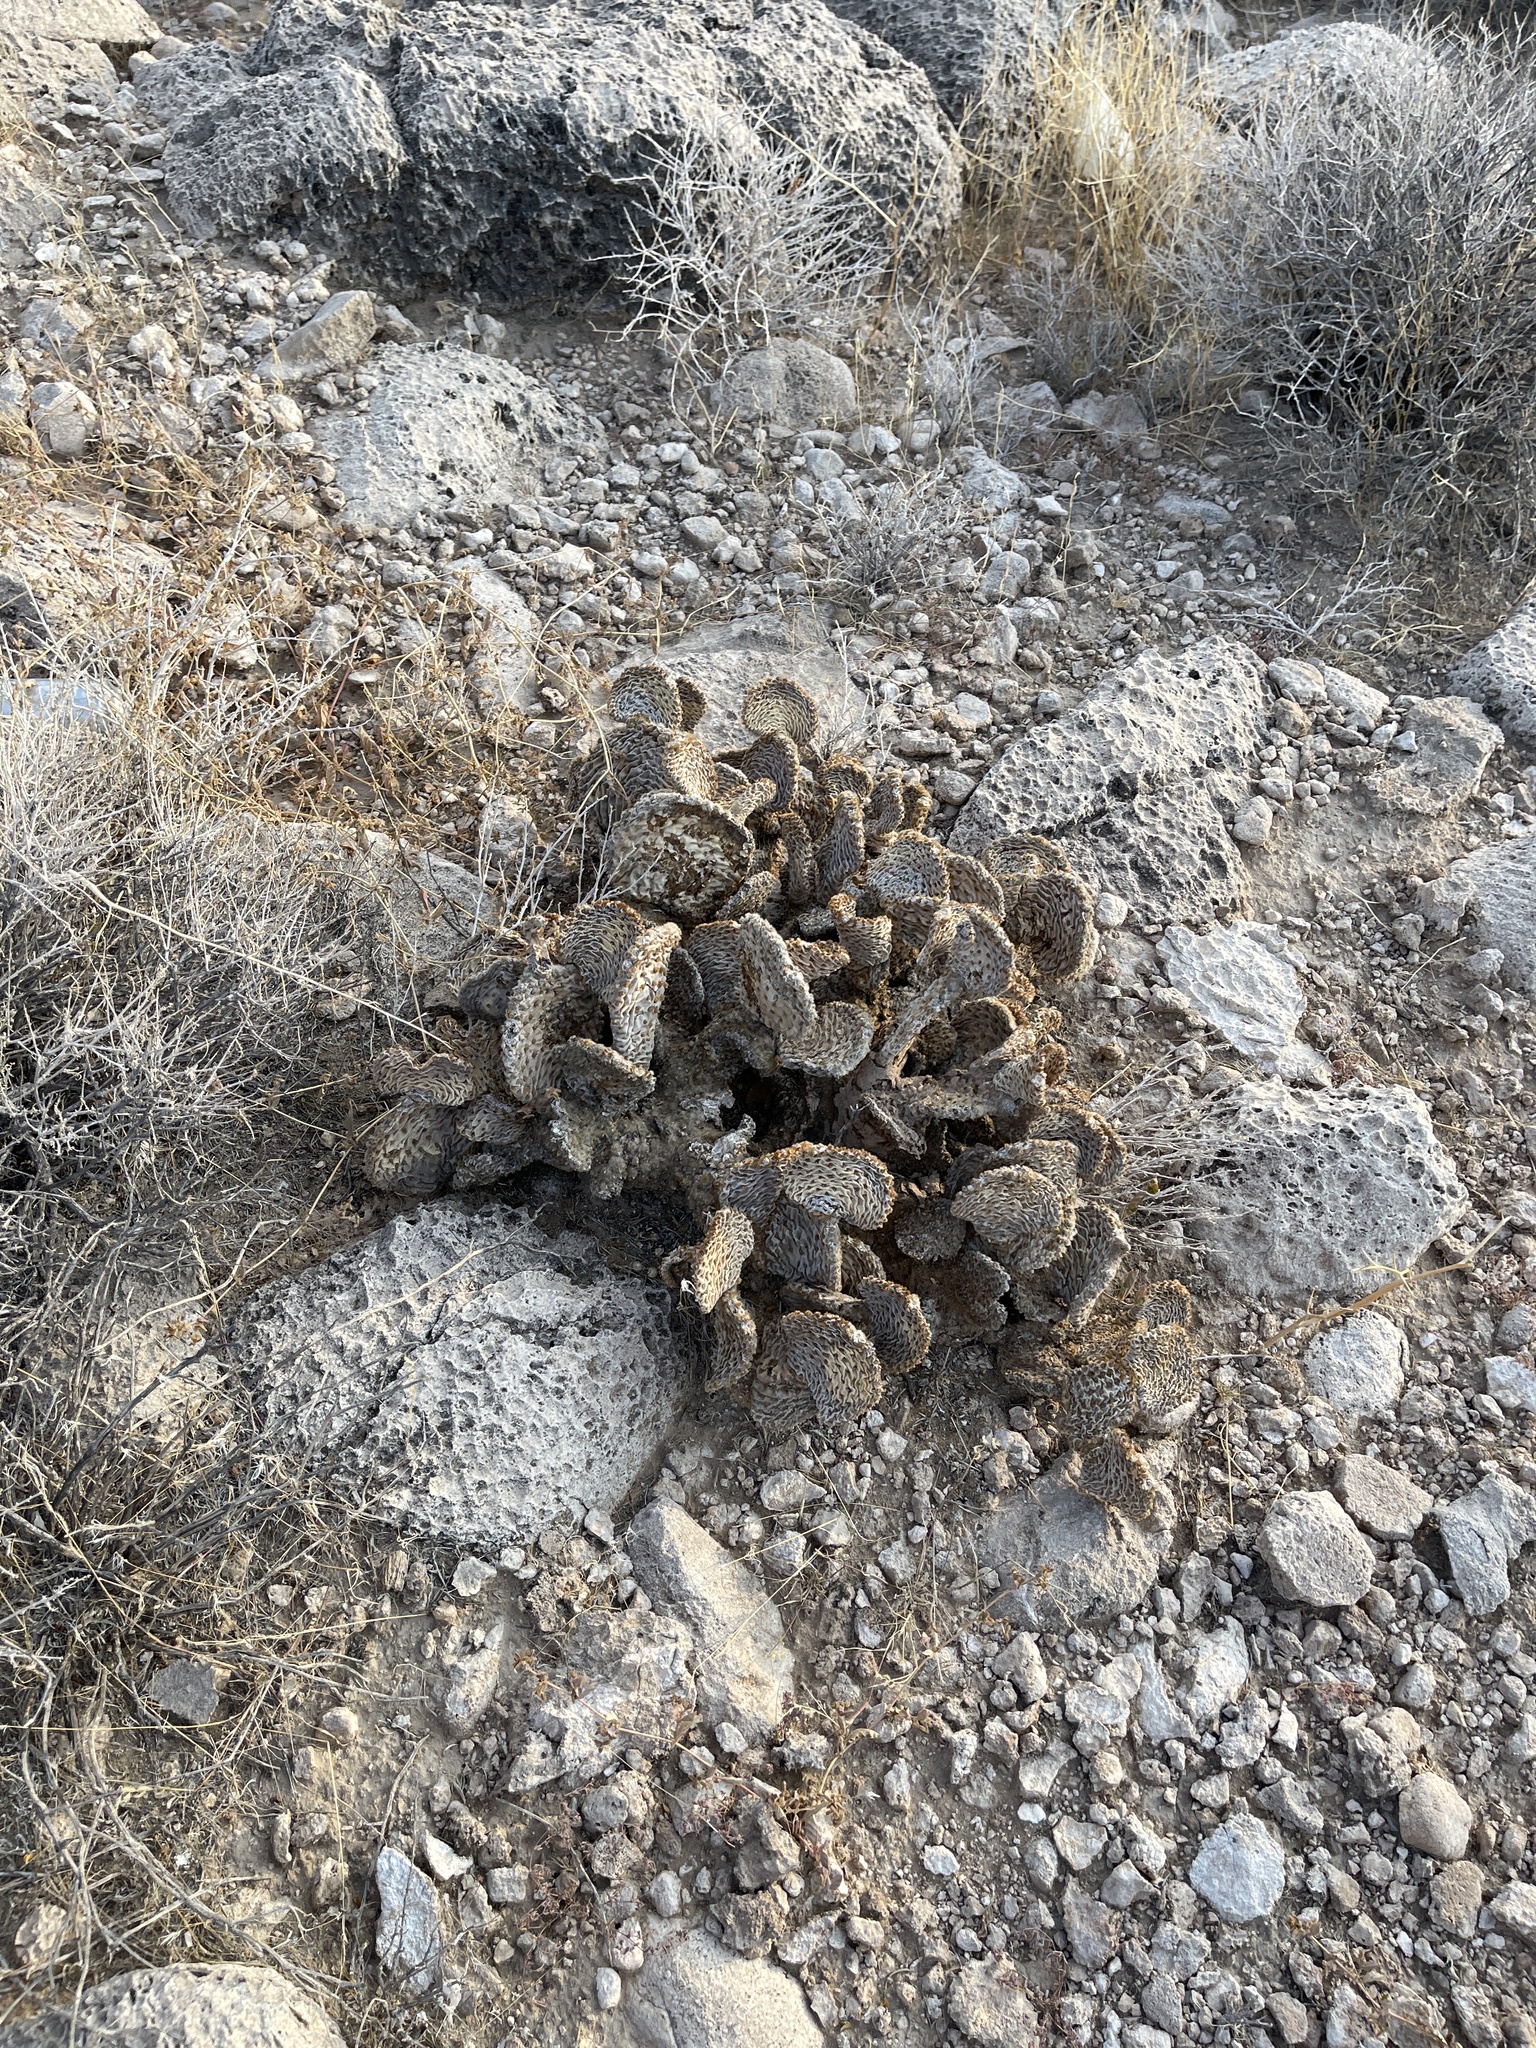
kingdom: Plantae
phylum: Tracheophyta
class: Magnoliopsida
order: Caryophyllales
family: Cactaceae
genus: Opuntia
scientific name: Opuntia basilaris
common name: Beavertail prickly-pear
